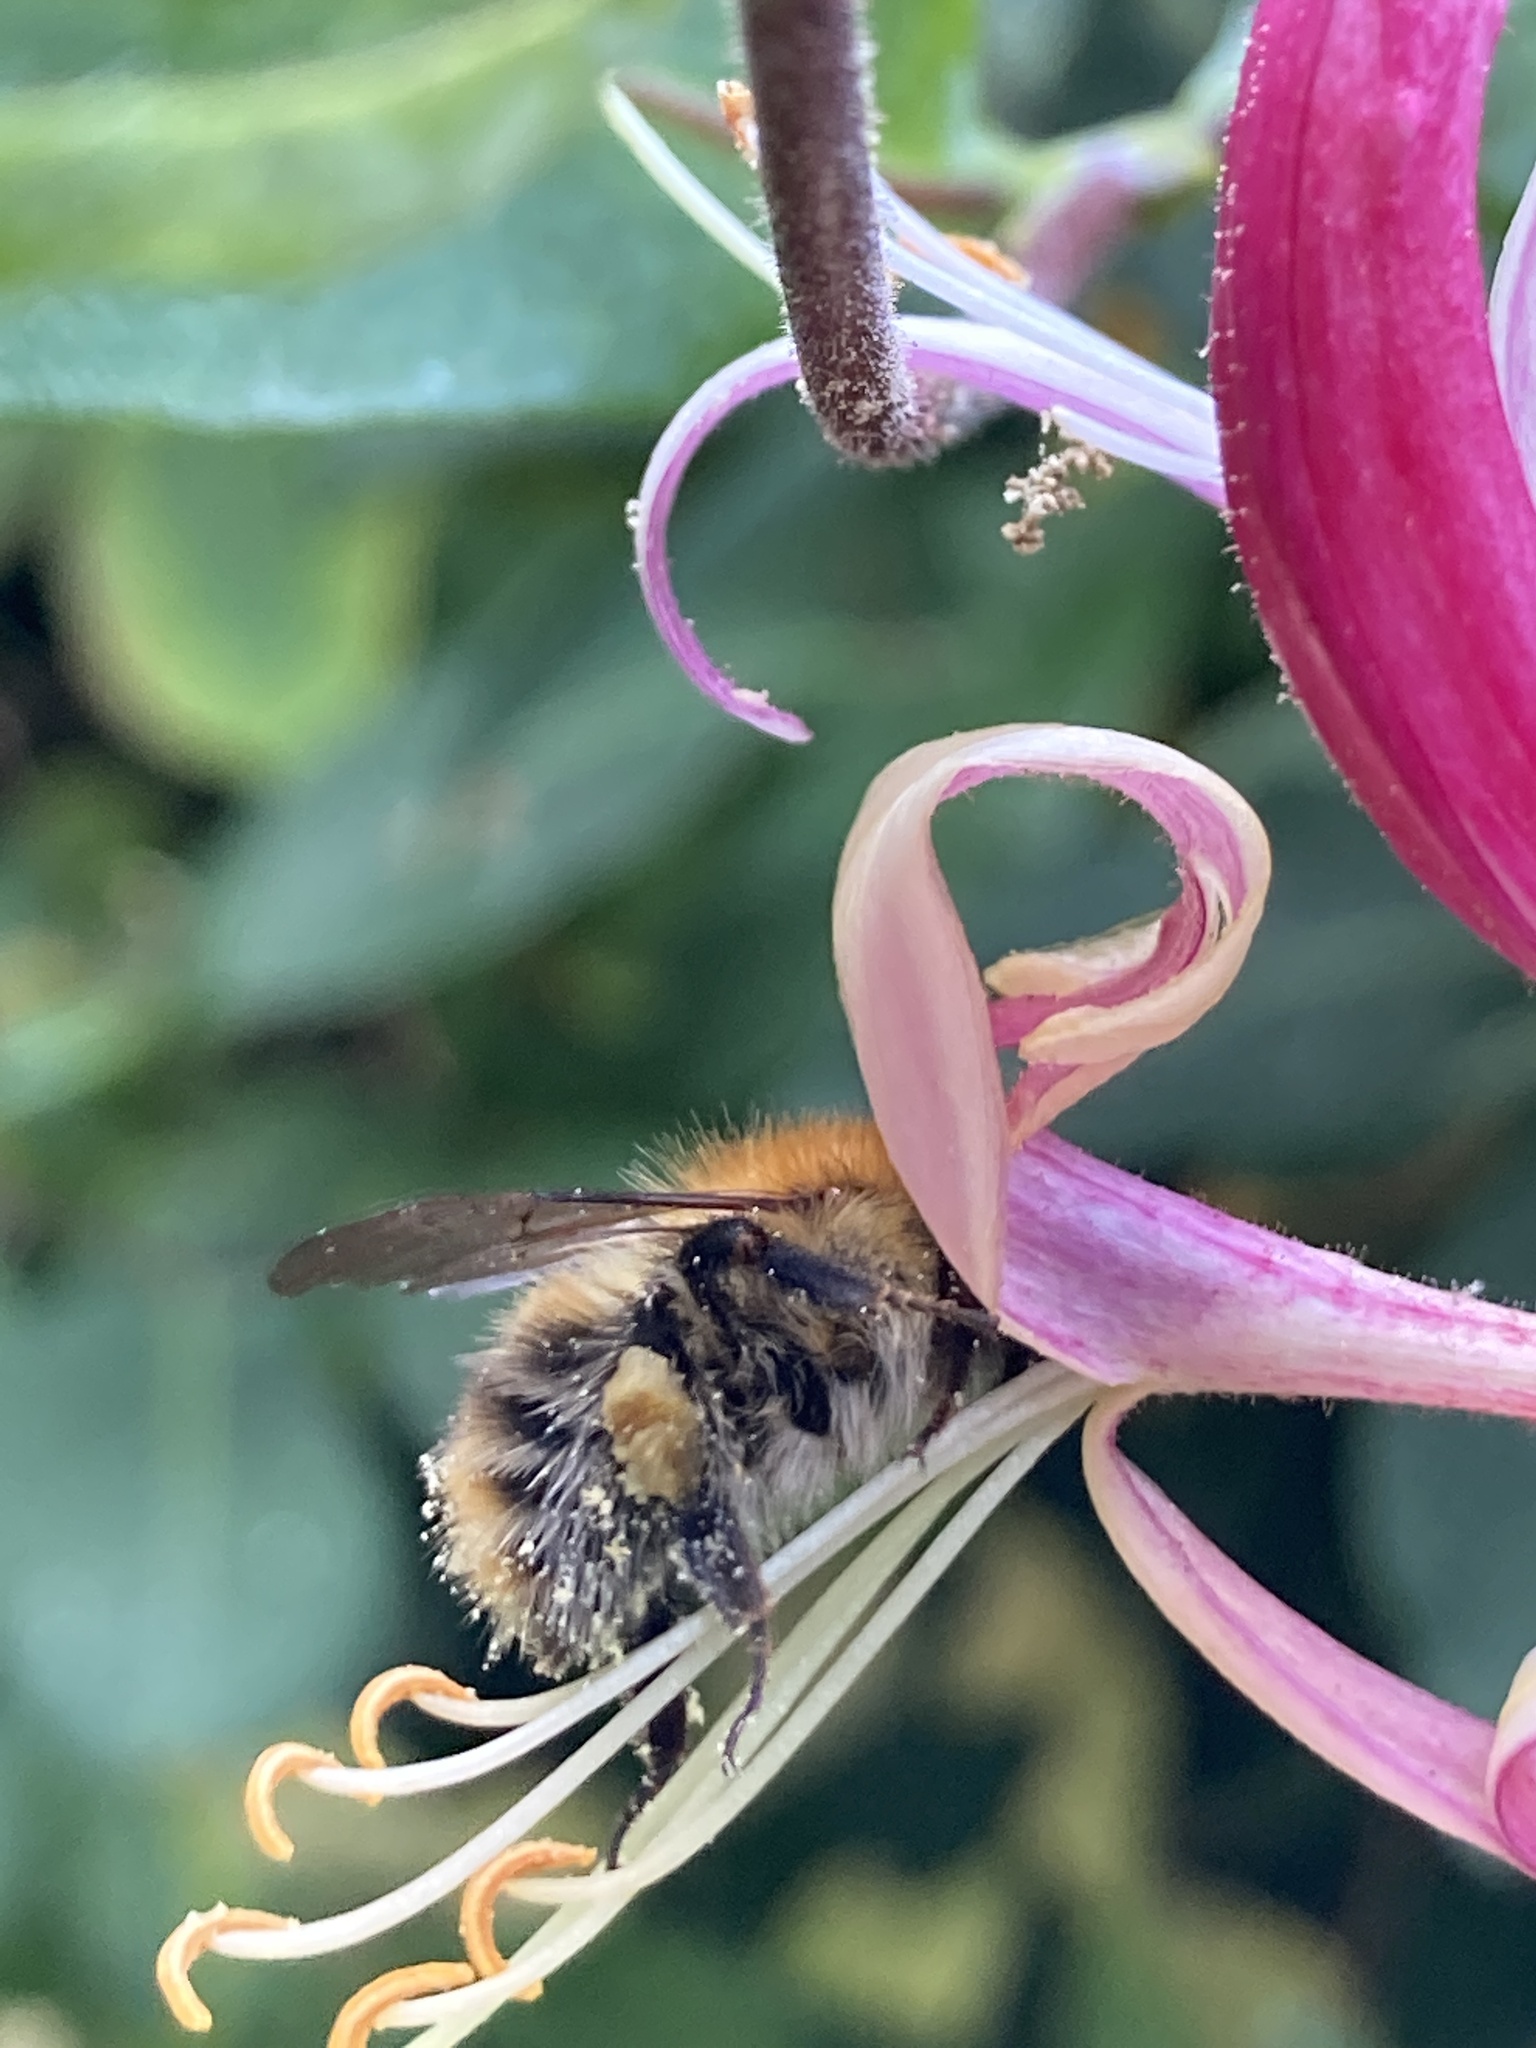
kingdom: Animalia
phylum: Arthropoda
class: Insecta
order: Hymenoptera
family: Apidae
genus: Bombus
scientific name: Bombus pascuorum
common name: Common carder bee
